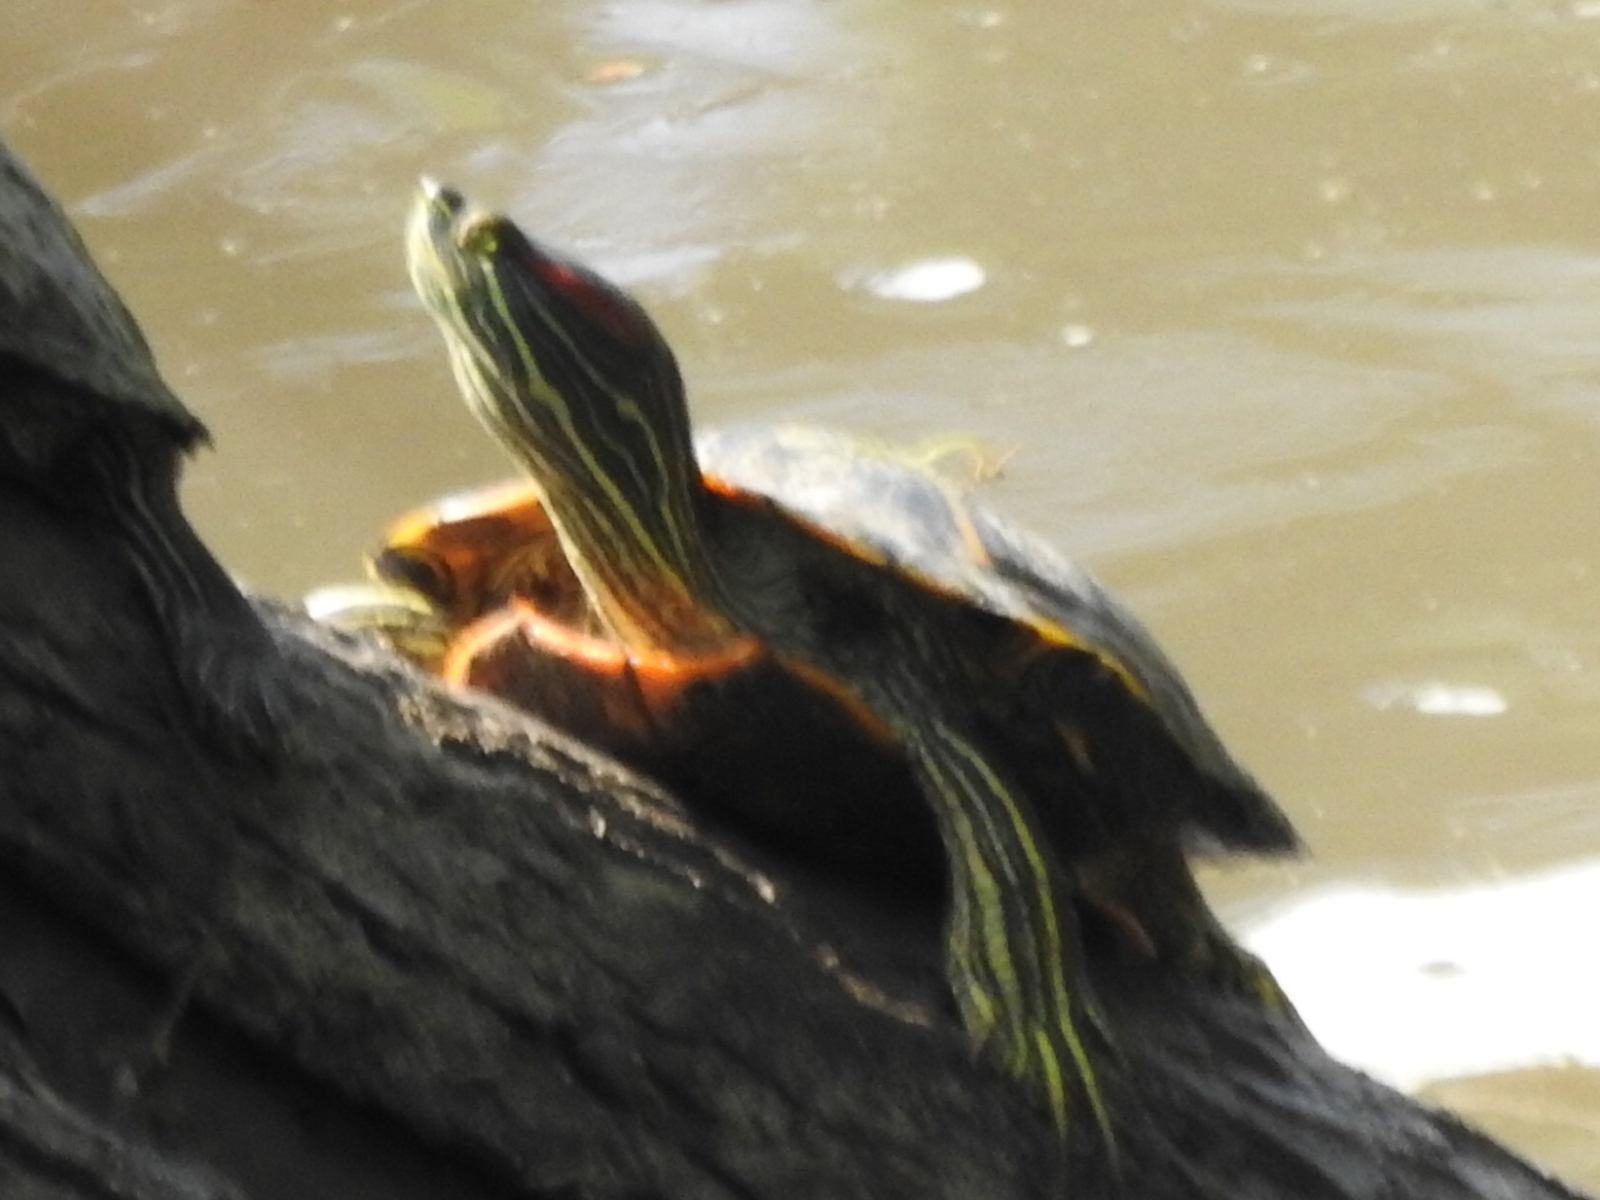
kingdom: Animalia
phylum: Chordata
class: Testudines
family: Emydidae
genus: Trachemys
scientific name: Trachemys scripta
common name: Slider
